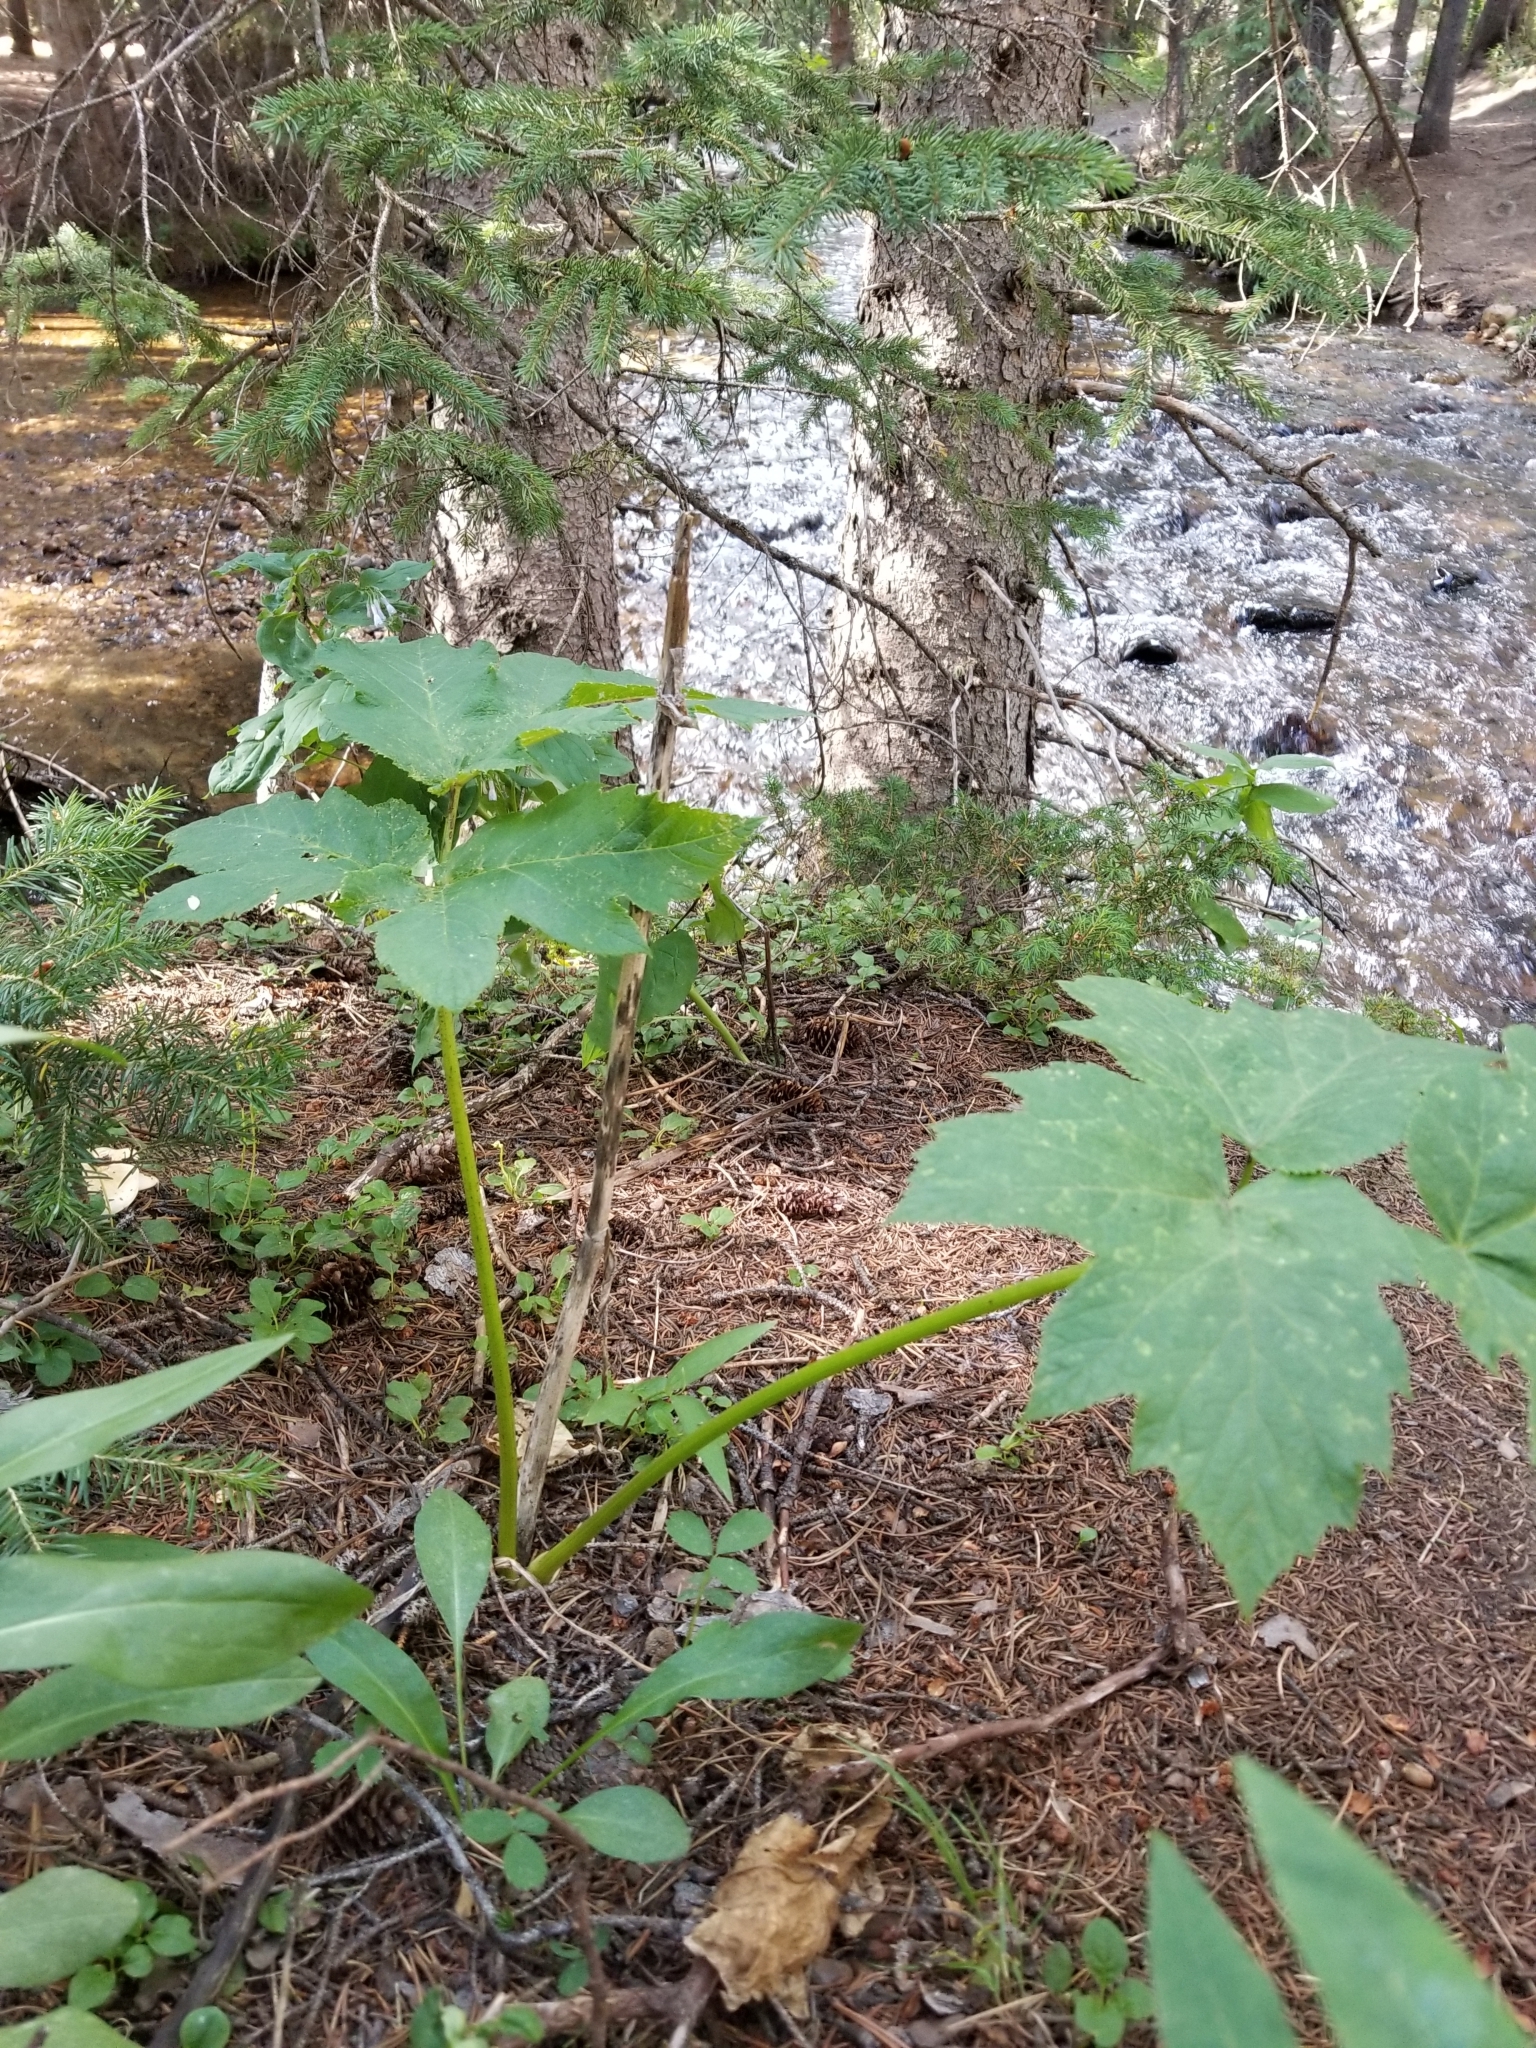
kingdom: Plantae
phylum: Tracheophyta
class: Magnoliopsida
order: Apiales
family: Apiaceae
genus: Heracleum
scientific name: Heracleum maximum
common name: American cow parsnip
